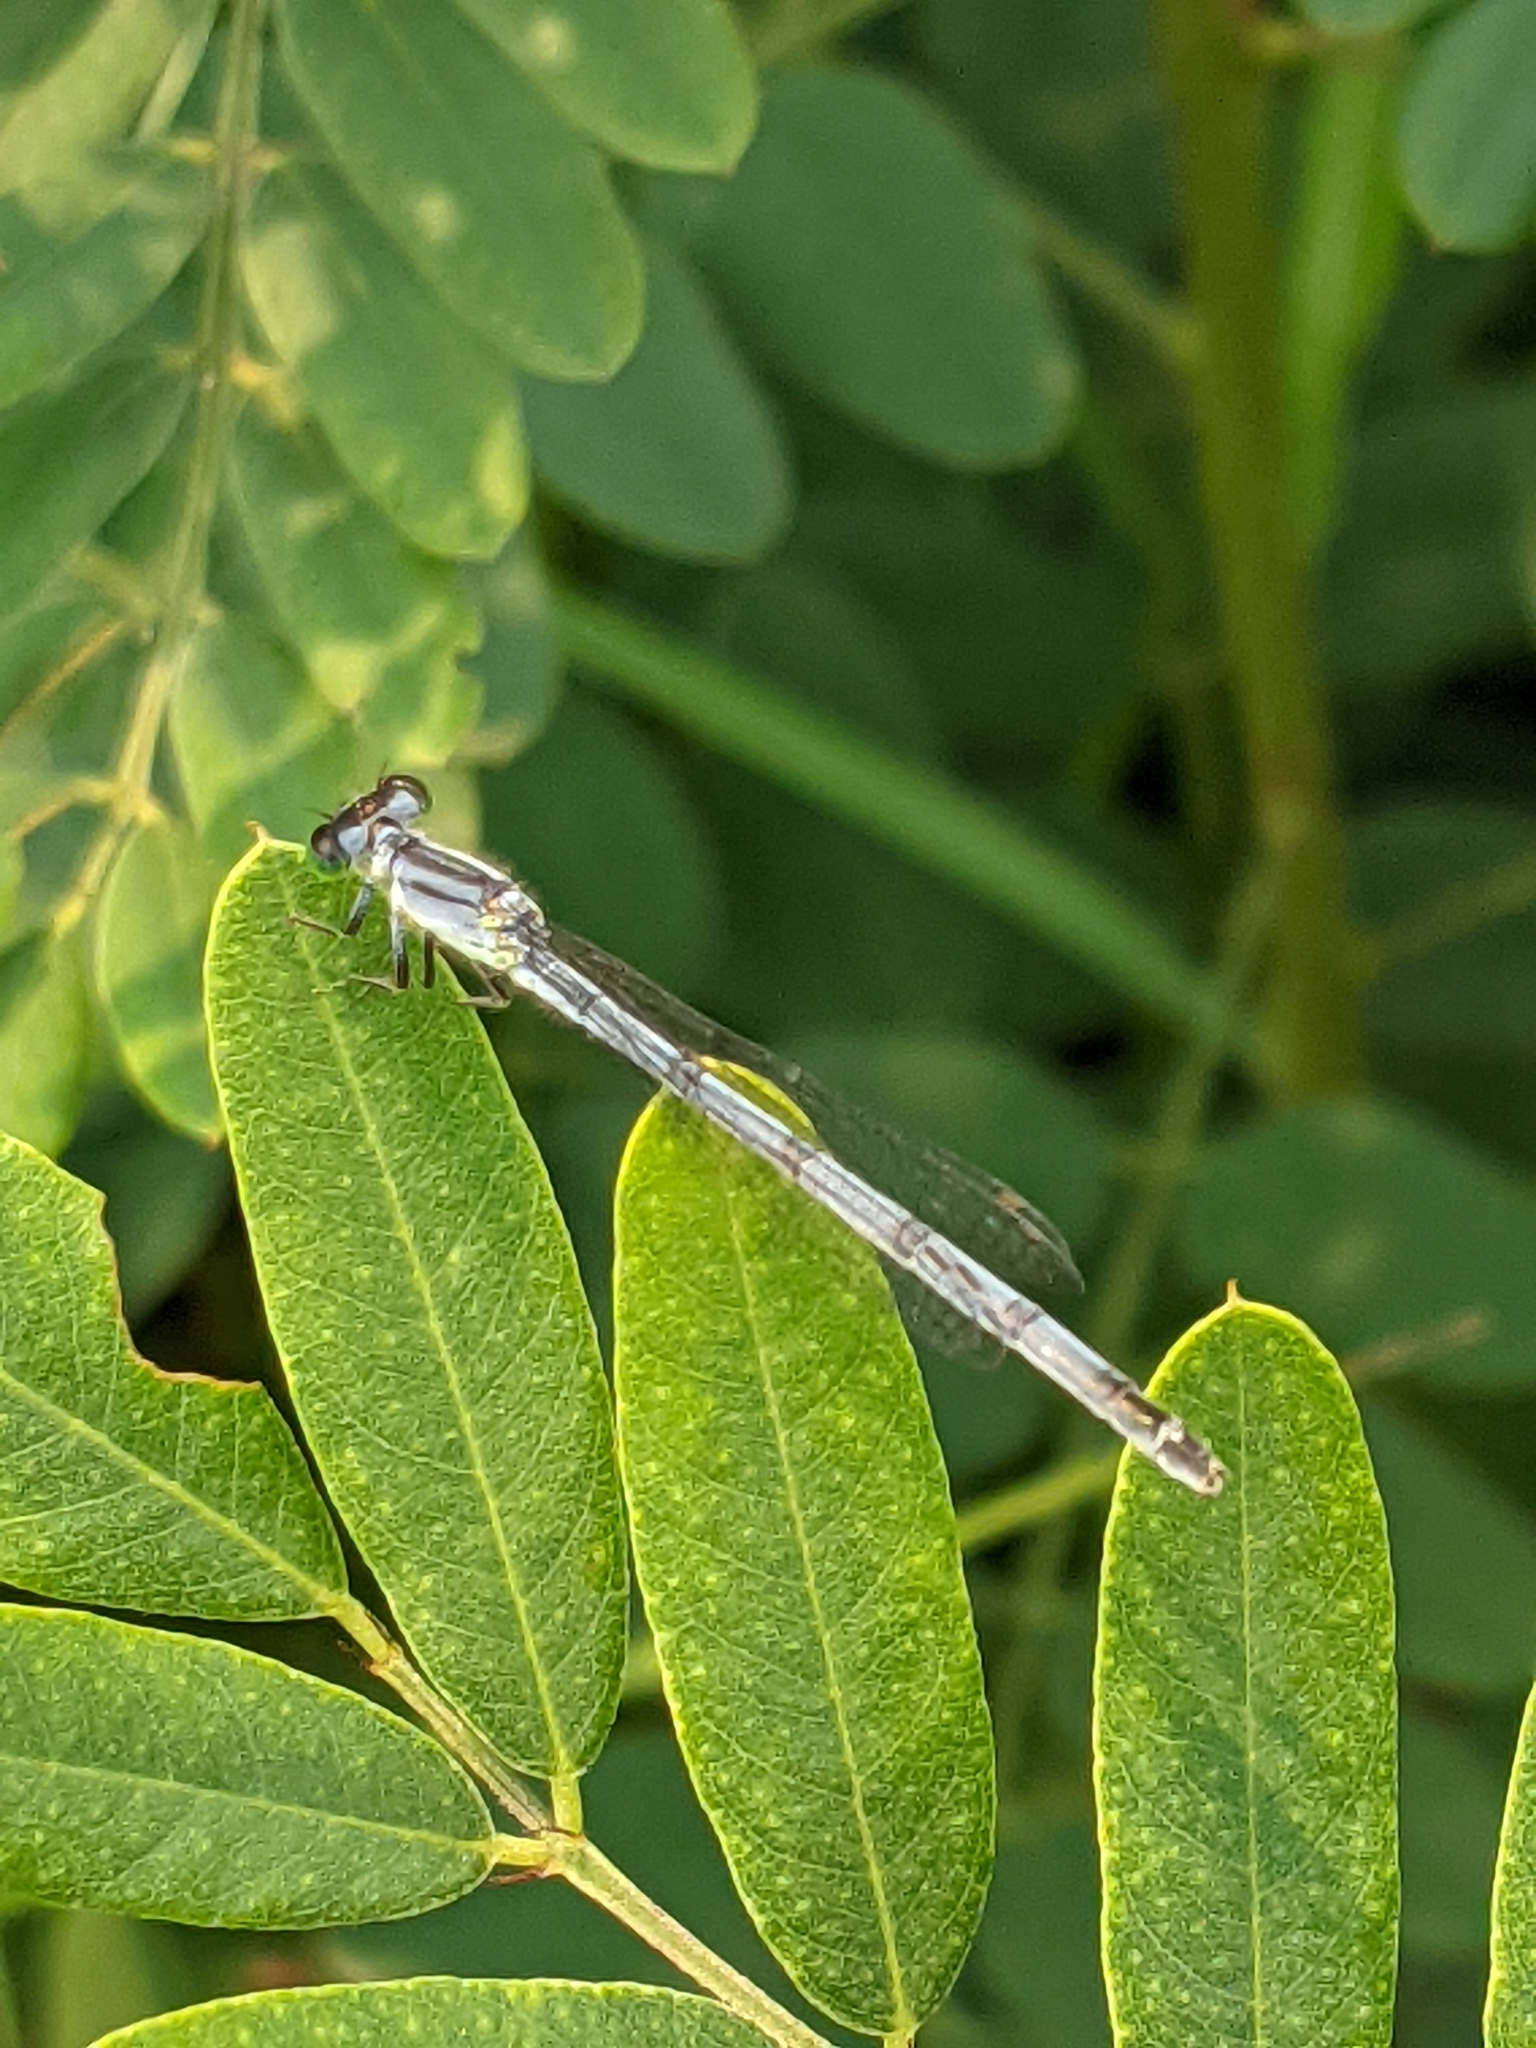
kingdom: Animalia
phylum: Arthropoda
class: Insecta
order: Odonata
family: Coenagrionidae
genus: Ischnura
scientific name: Ischnura verticalis
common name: Eastern forktail
